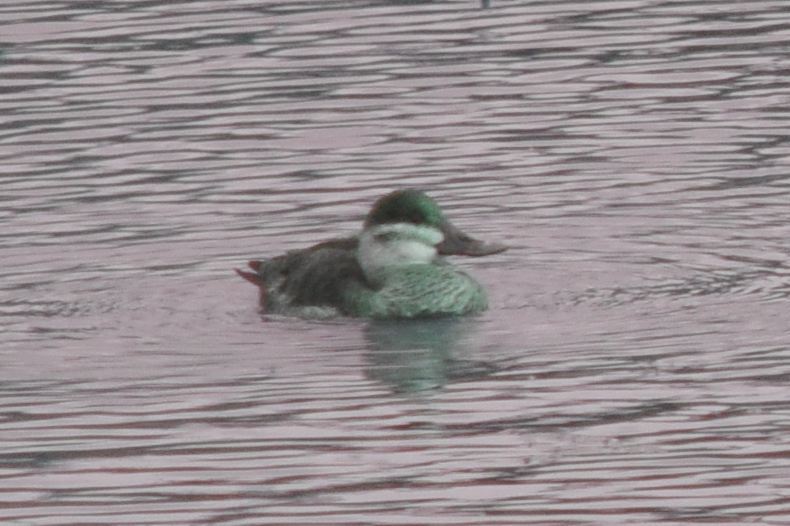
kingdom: Animalia
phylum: Chordata
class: Aves
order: Anseriformes
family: Anatidae
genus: Oxyura
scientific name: Oxyura jamaicensis
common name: Ruddy duck
